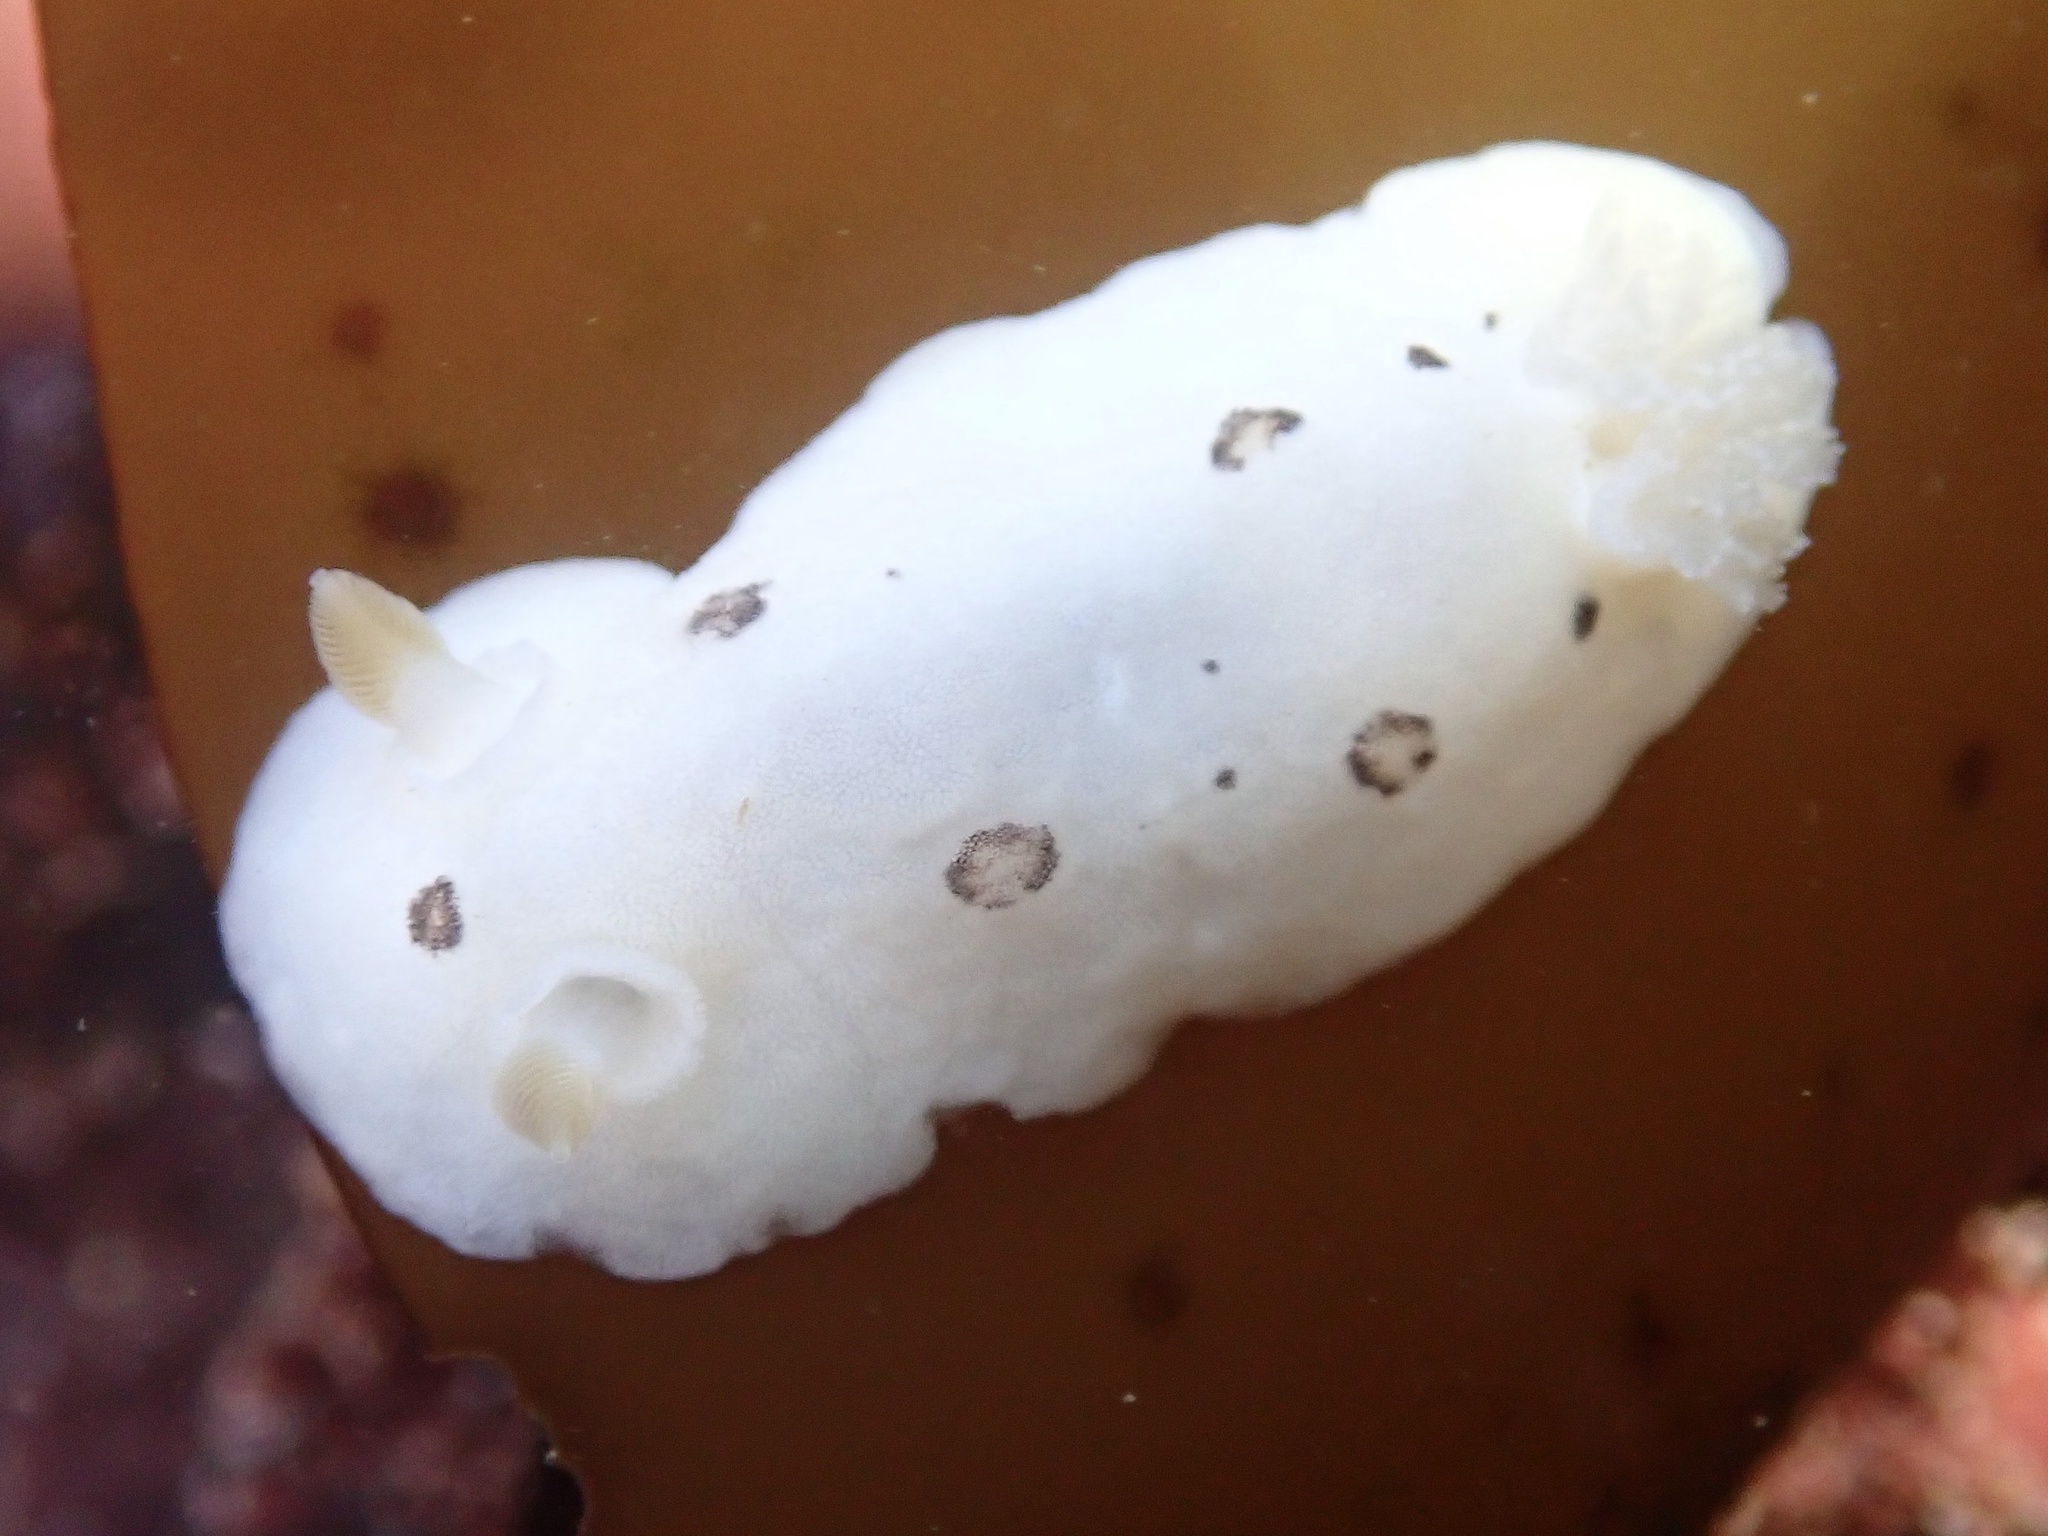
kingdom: Animalia
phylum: Mollusca
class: Gastropoda
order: Nudibranchia
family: Discodorididae
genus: Diaulula
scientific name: Diaulula sandiegensis
